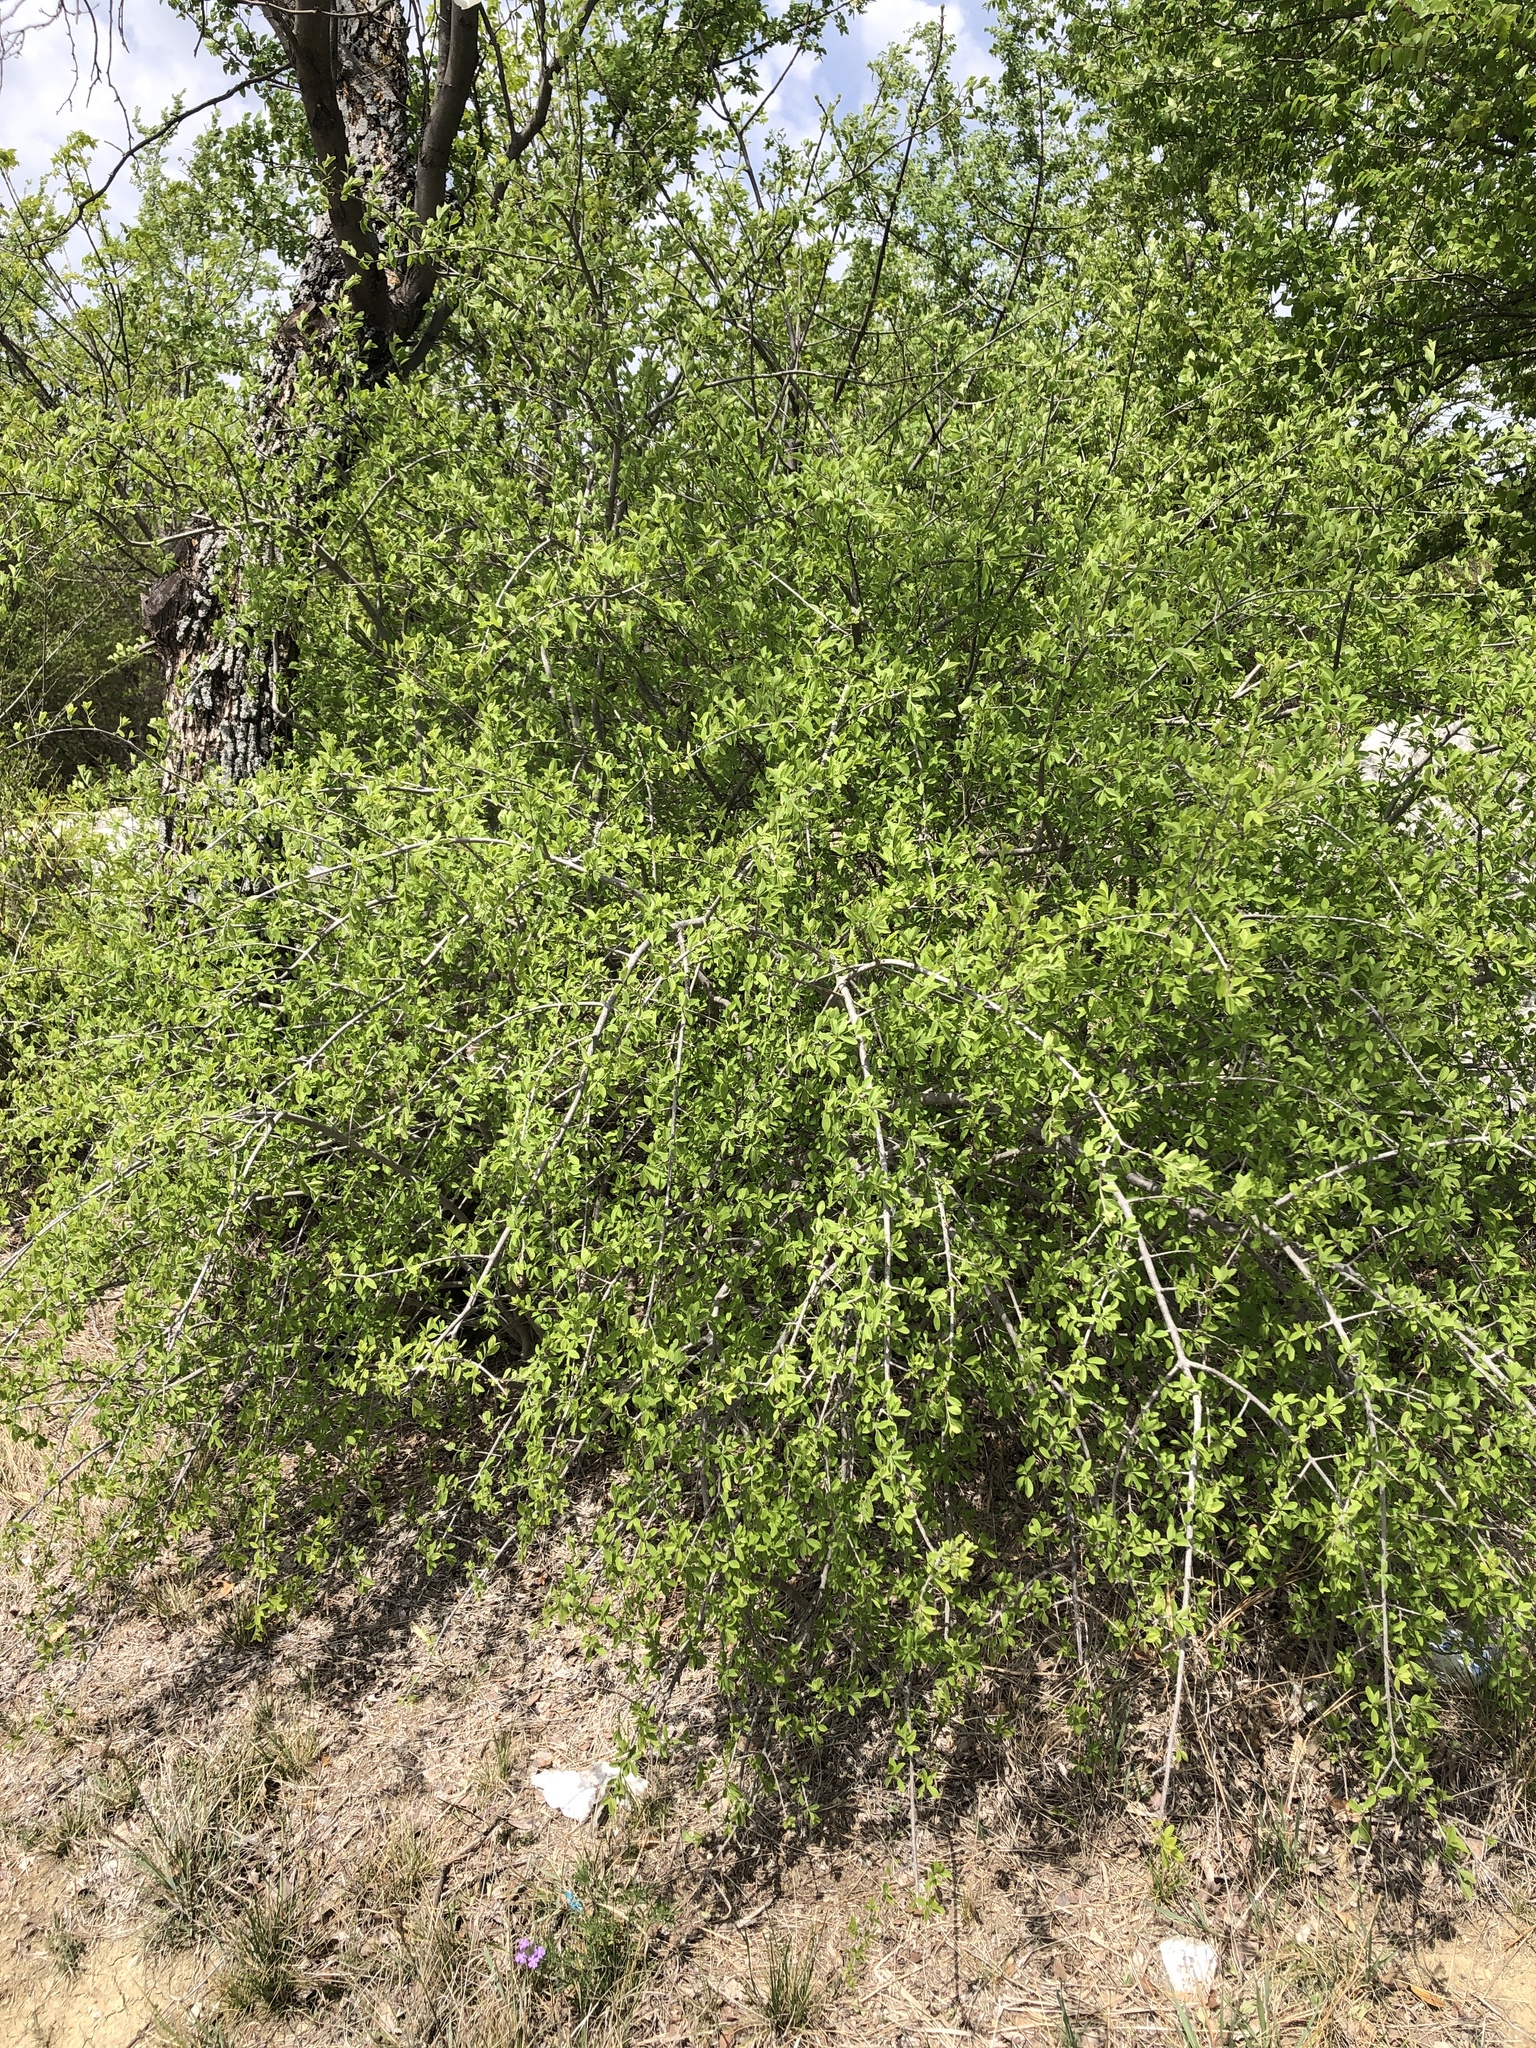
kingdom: Plantae
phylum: Tracheophyta
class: Magnoliopsida
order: Lamiales
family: Oleaceae
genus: Forestiera
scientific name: Forestiera pubescens
